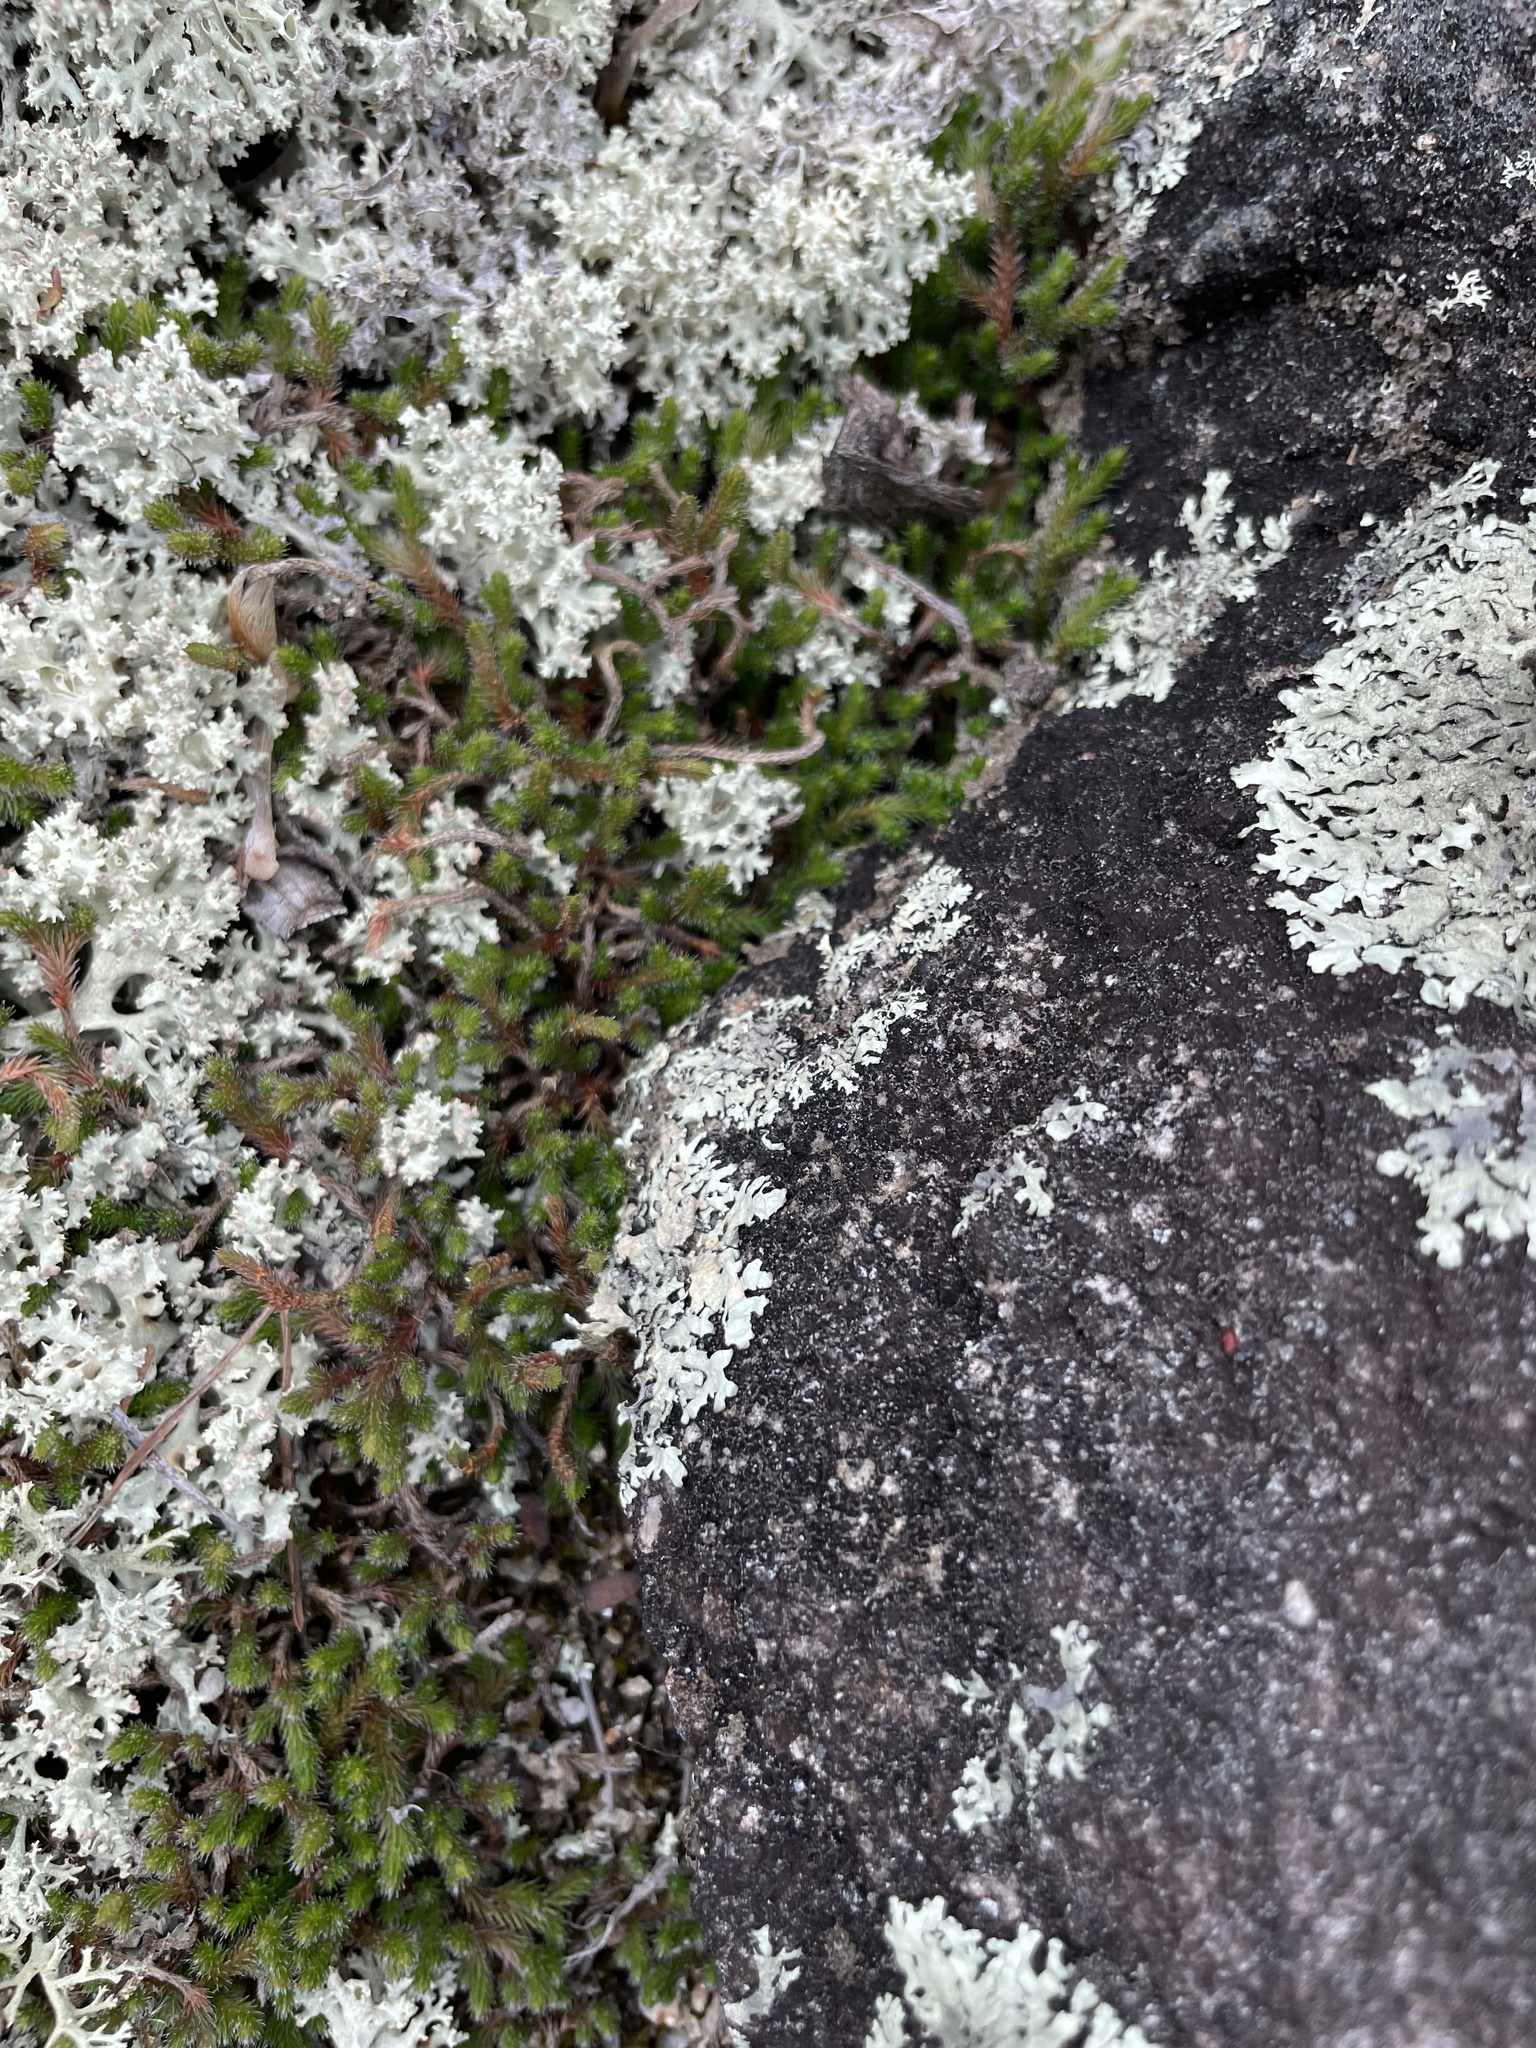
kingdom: Plantae
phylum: Tracheophyta
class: Lycopodiopsida
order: Selaginellales
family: Selaginellaceae
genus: Selaginella
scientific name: Selaginella rupestris
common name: Dwarf spikemoss
